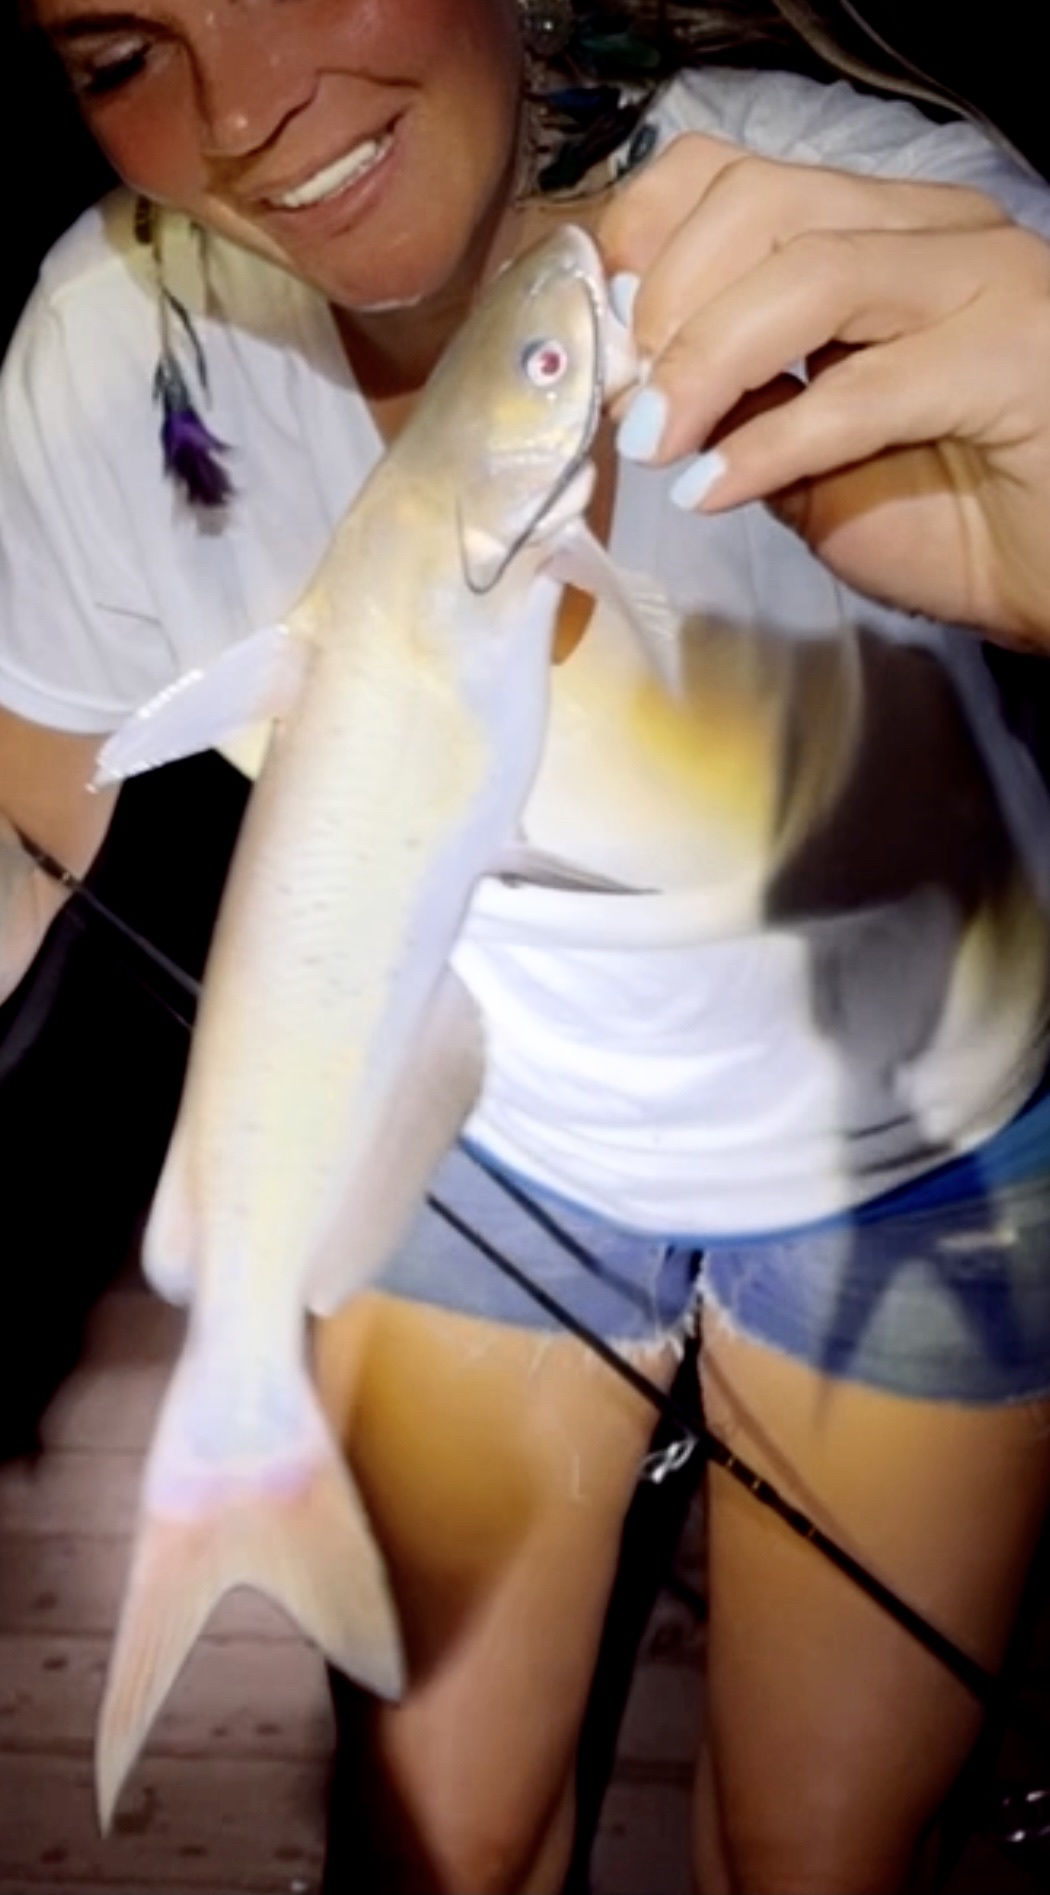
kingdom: Animalia
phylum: Chordata
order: Siluriformes
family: Ictaluridae
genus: Ictalurus
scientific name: Ictalurus punctatus
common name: Channel catfish
